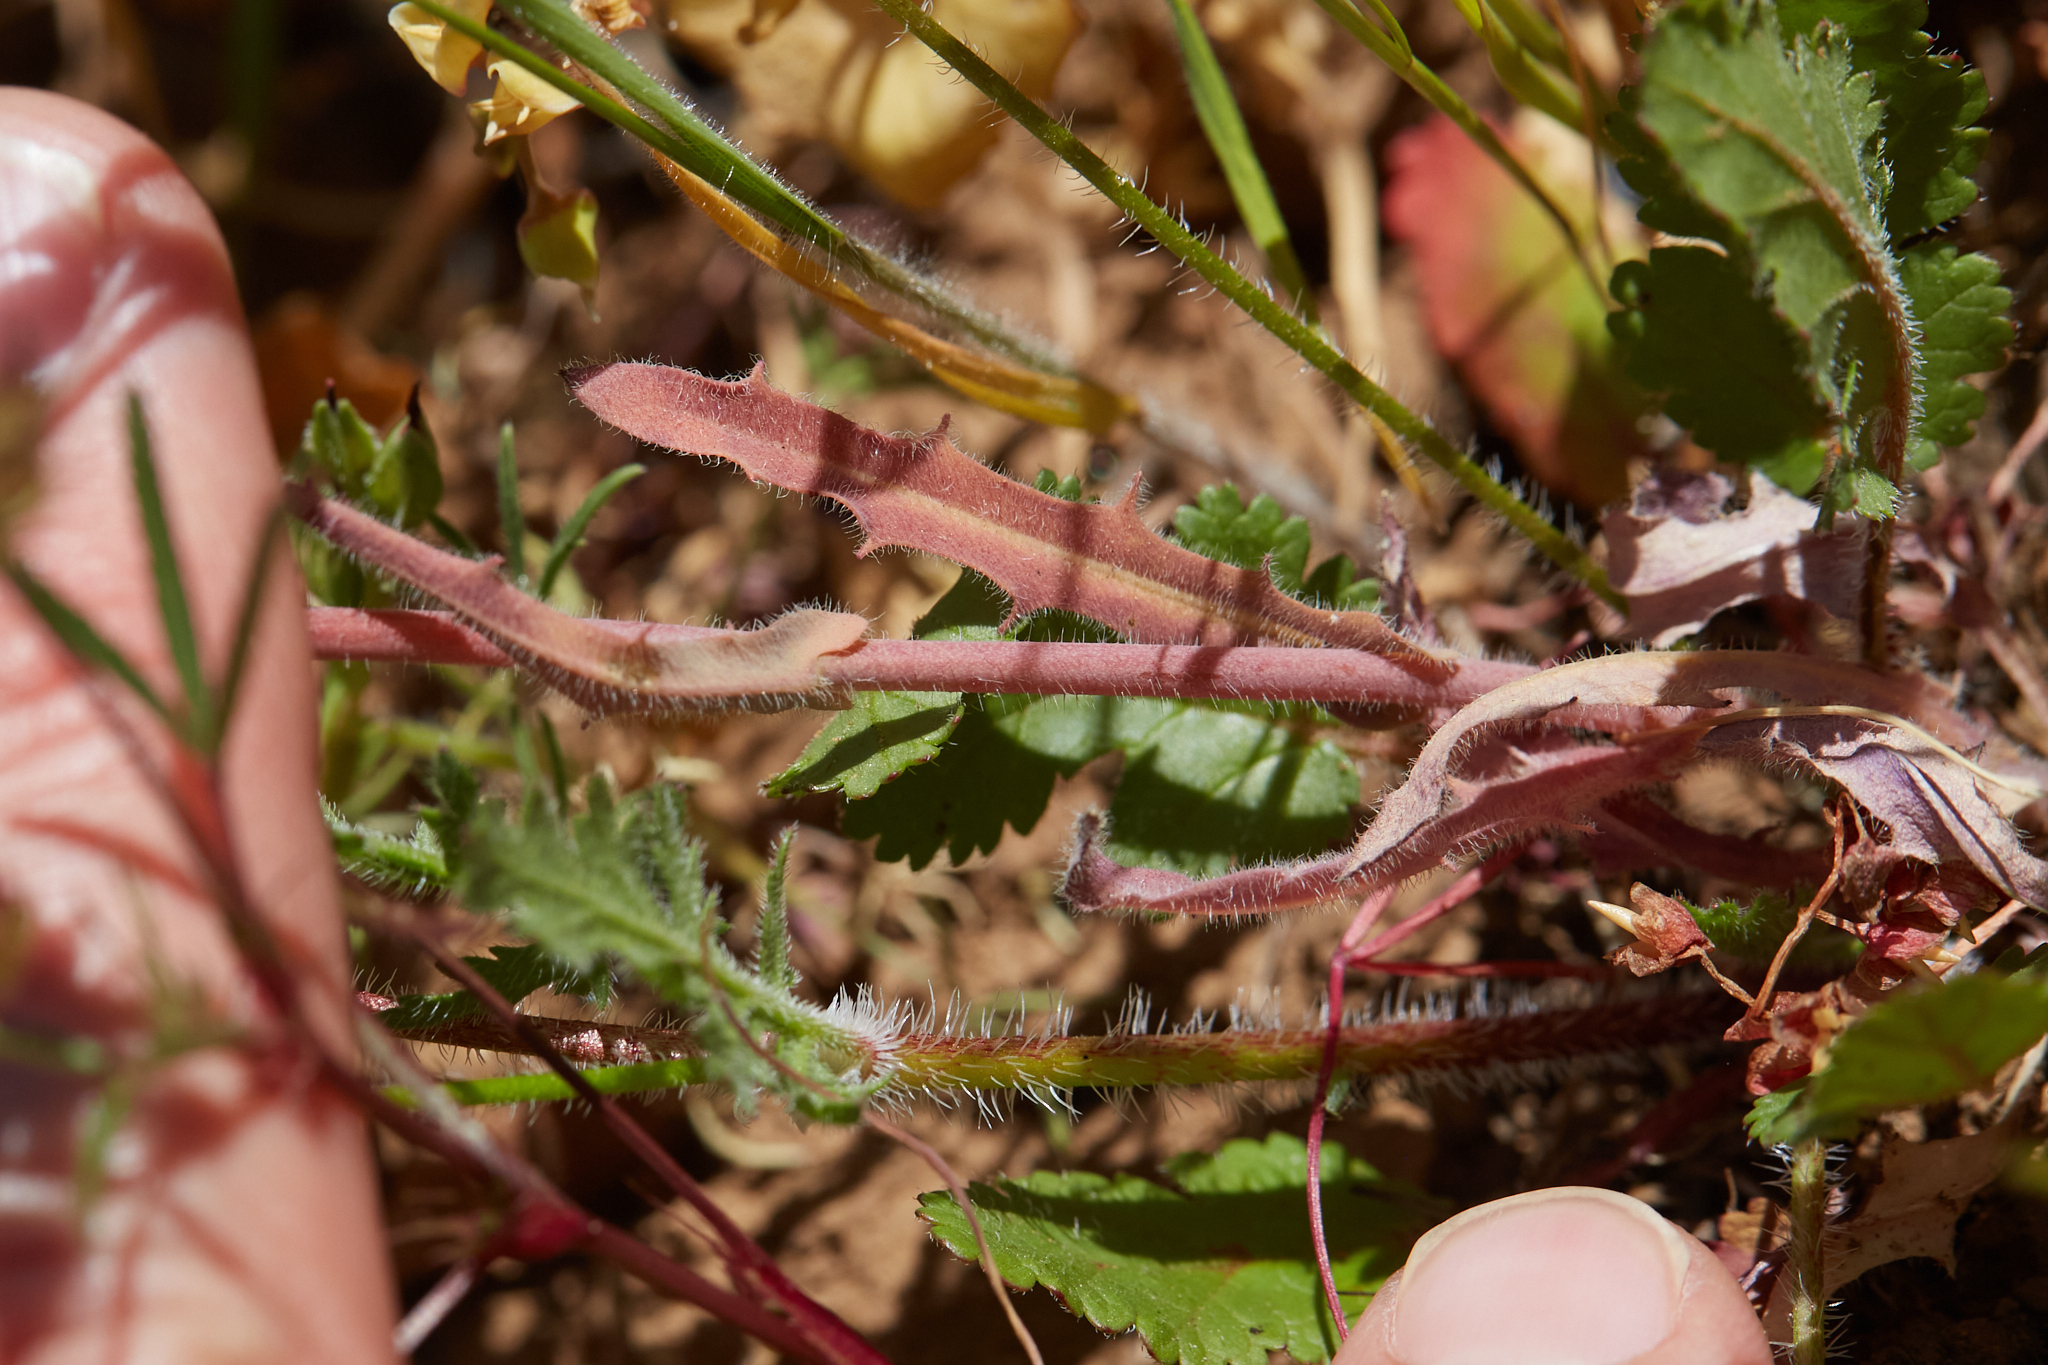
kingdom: Plantae
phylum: Tracheophyta
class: Magnoliopsida
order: Brassicales
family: Brassicaceae
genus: Thysanocarpus
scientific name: Thysanocarpus curvipes
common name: Sand fringepod
